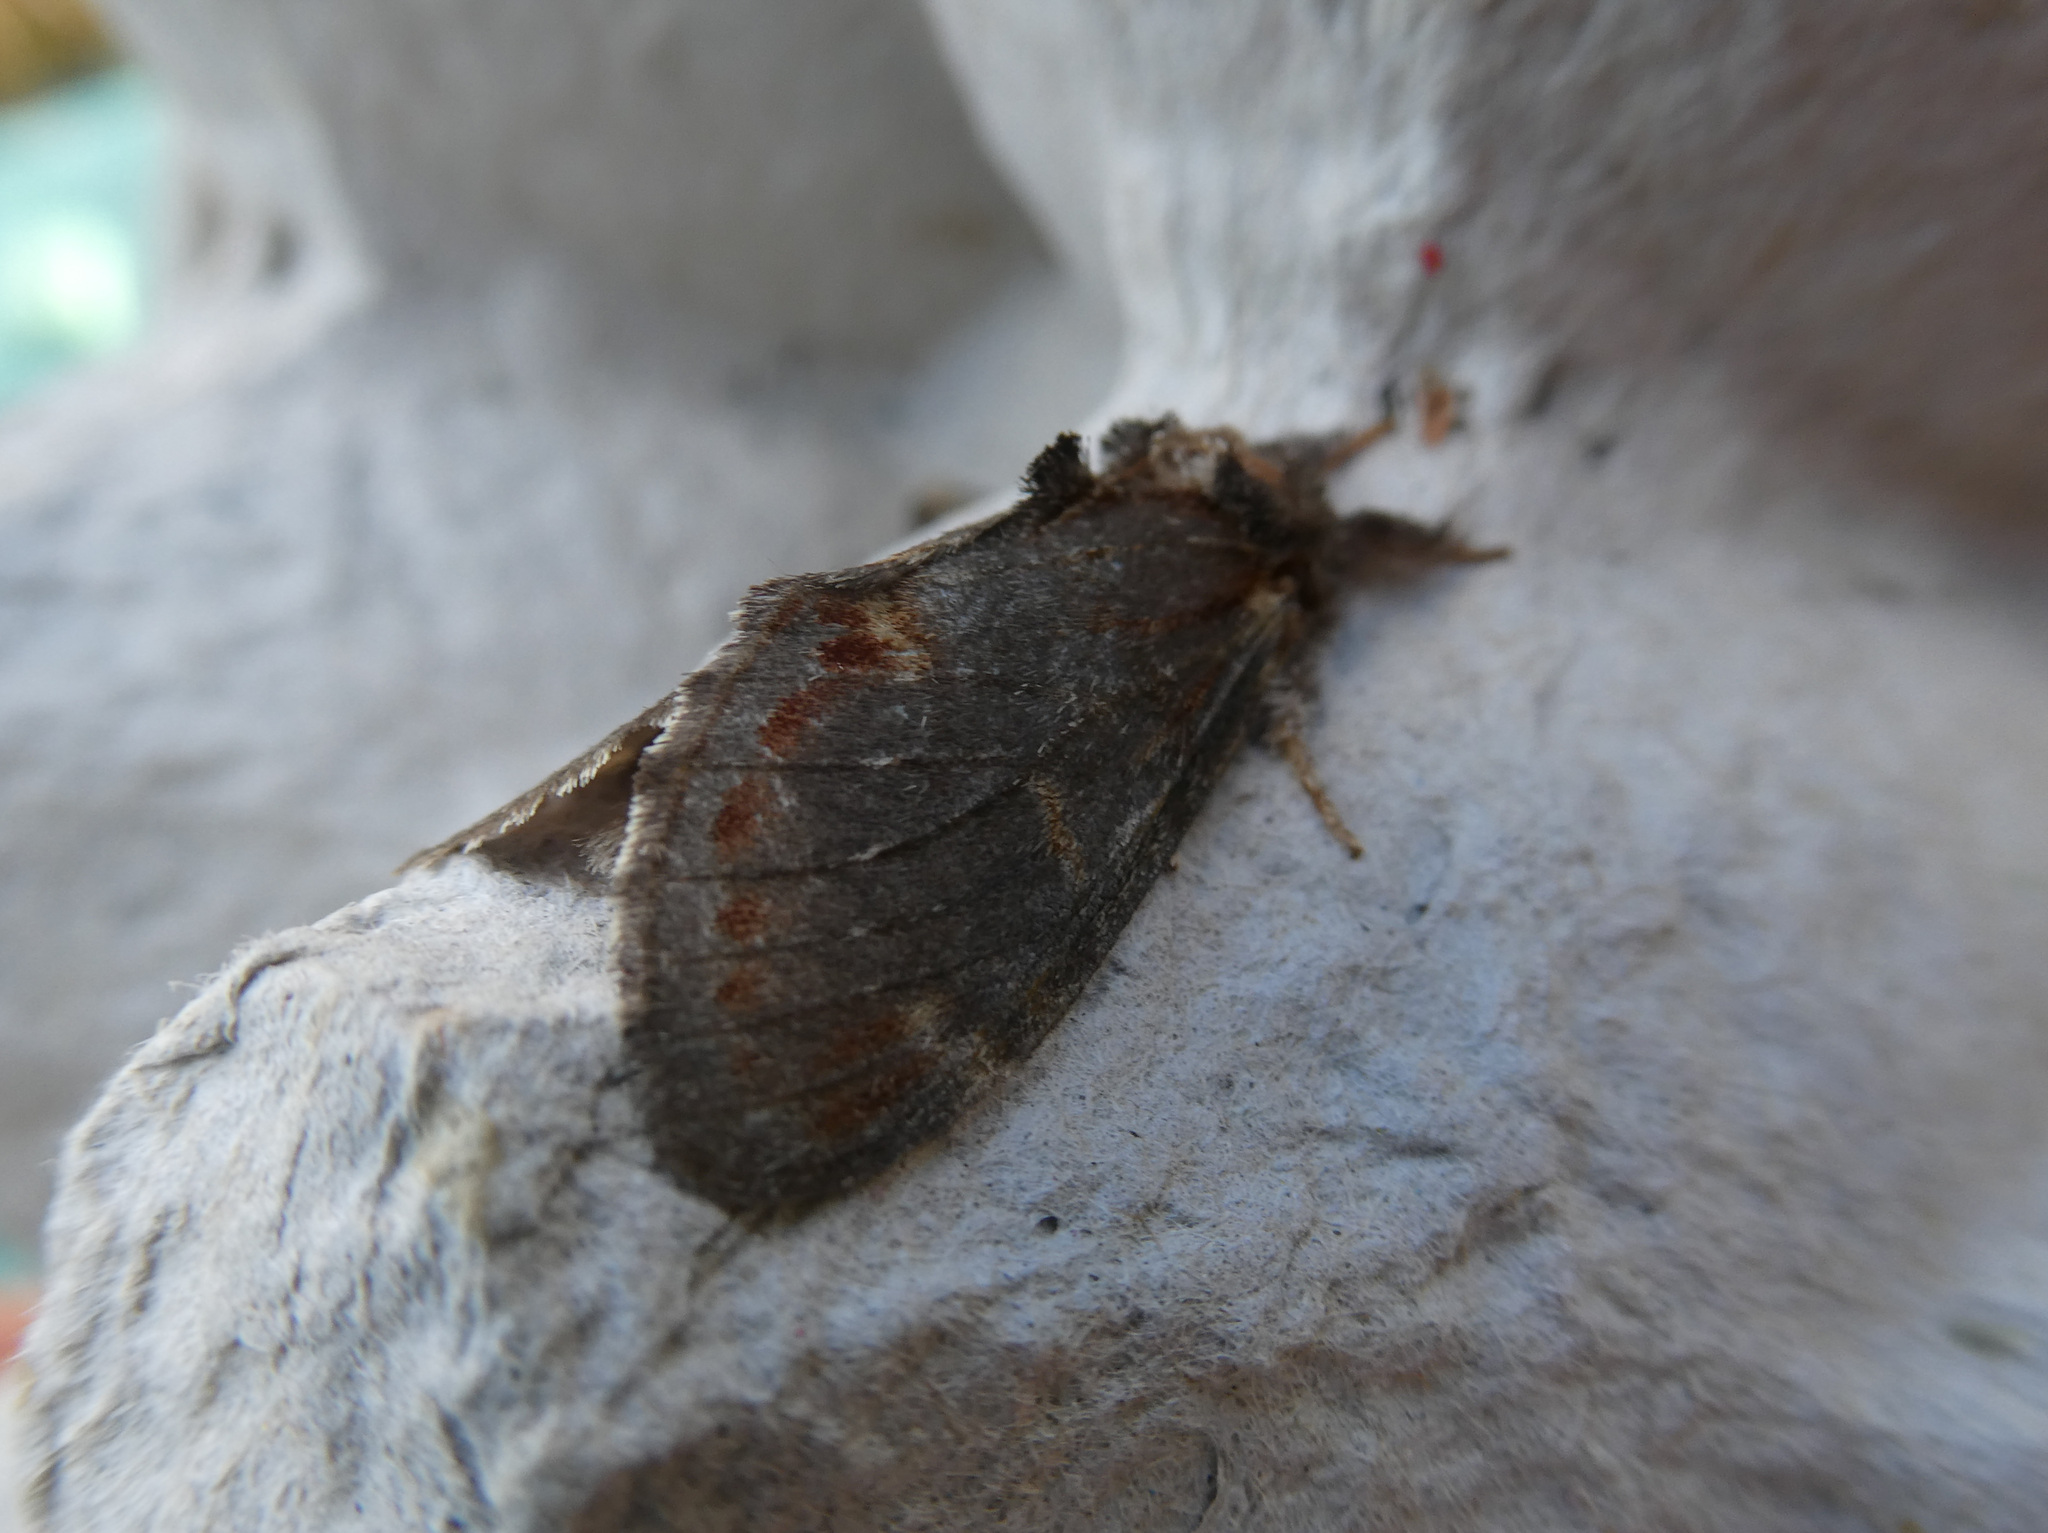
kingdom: Animalia
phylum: Arthropoda
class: Insecta
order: Lepidoptera
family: Notodontidae
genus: Notodonta
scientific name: Notodonta dromedarius
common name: Iron prominent
